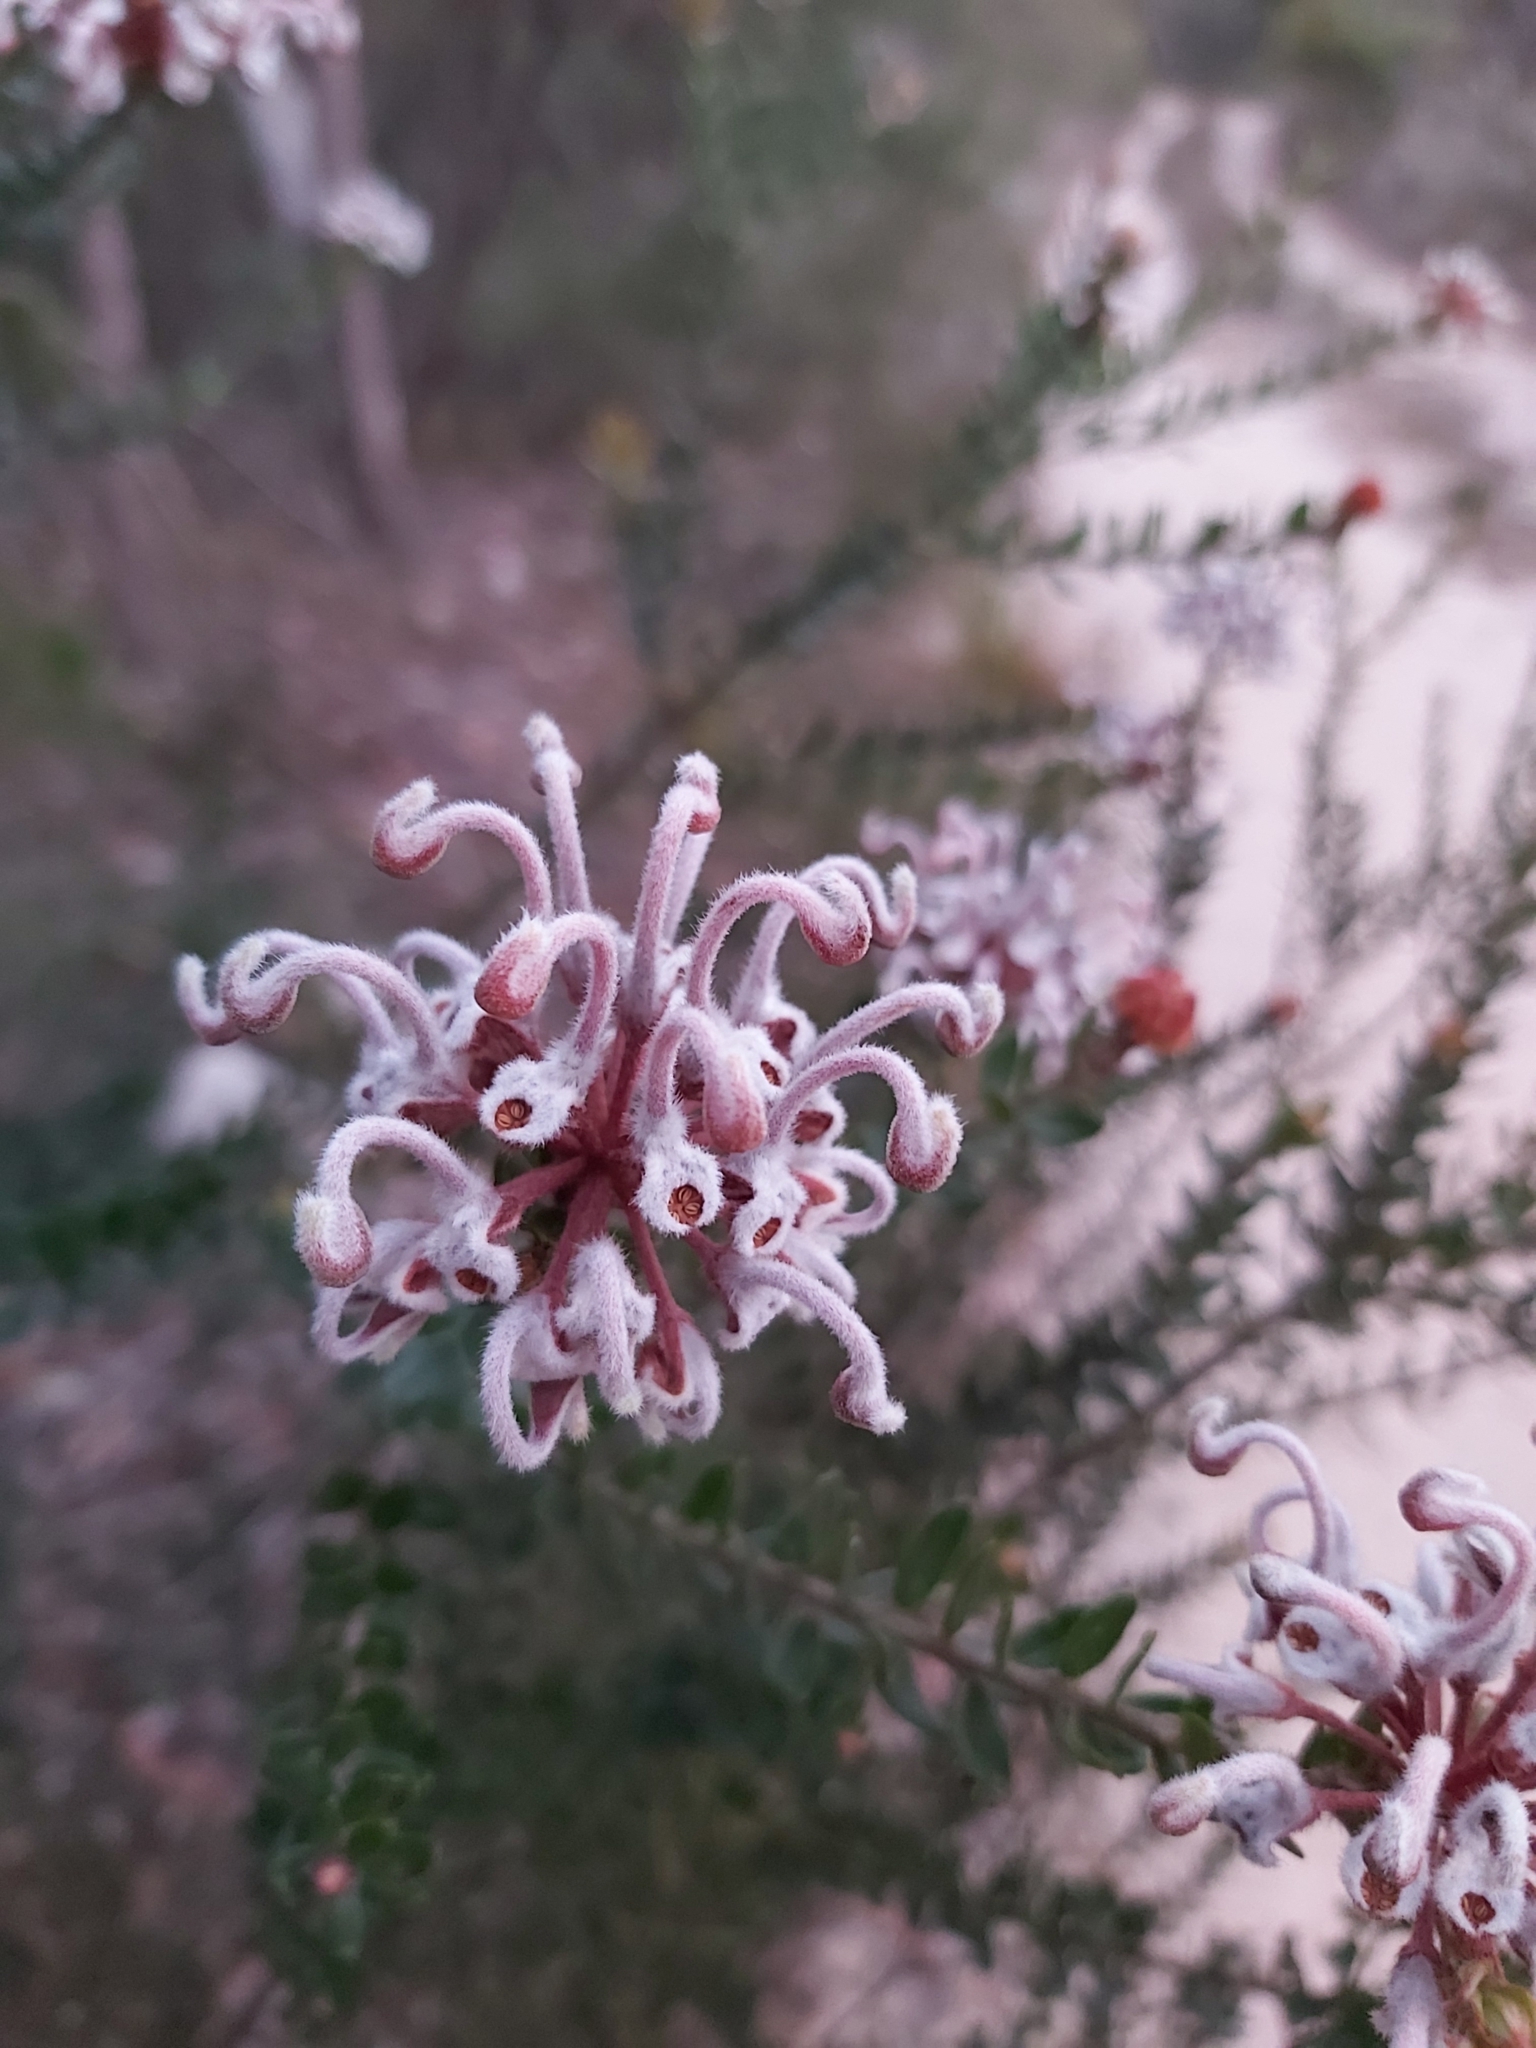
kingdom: Plantae
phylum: Tracheophyta
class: Magnoliopsida
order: Proteales
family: Proteaceae
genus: Grevillea
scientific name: Grevillea buxifolia
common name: Grey spiderflower
